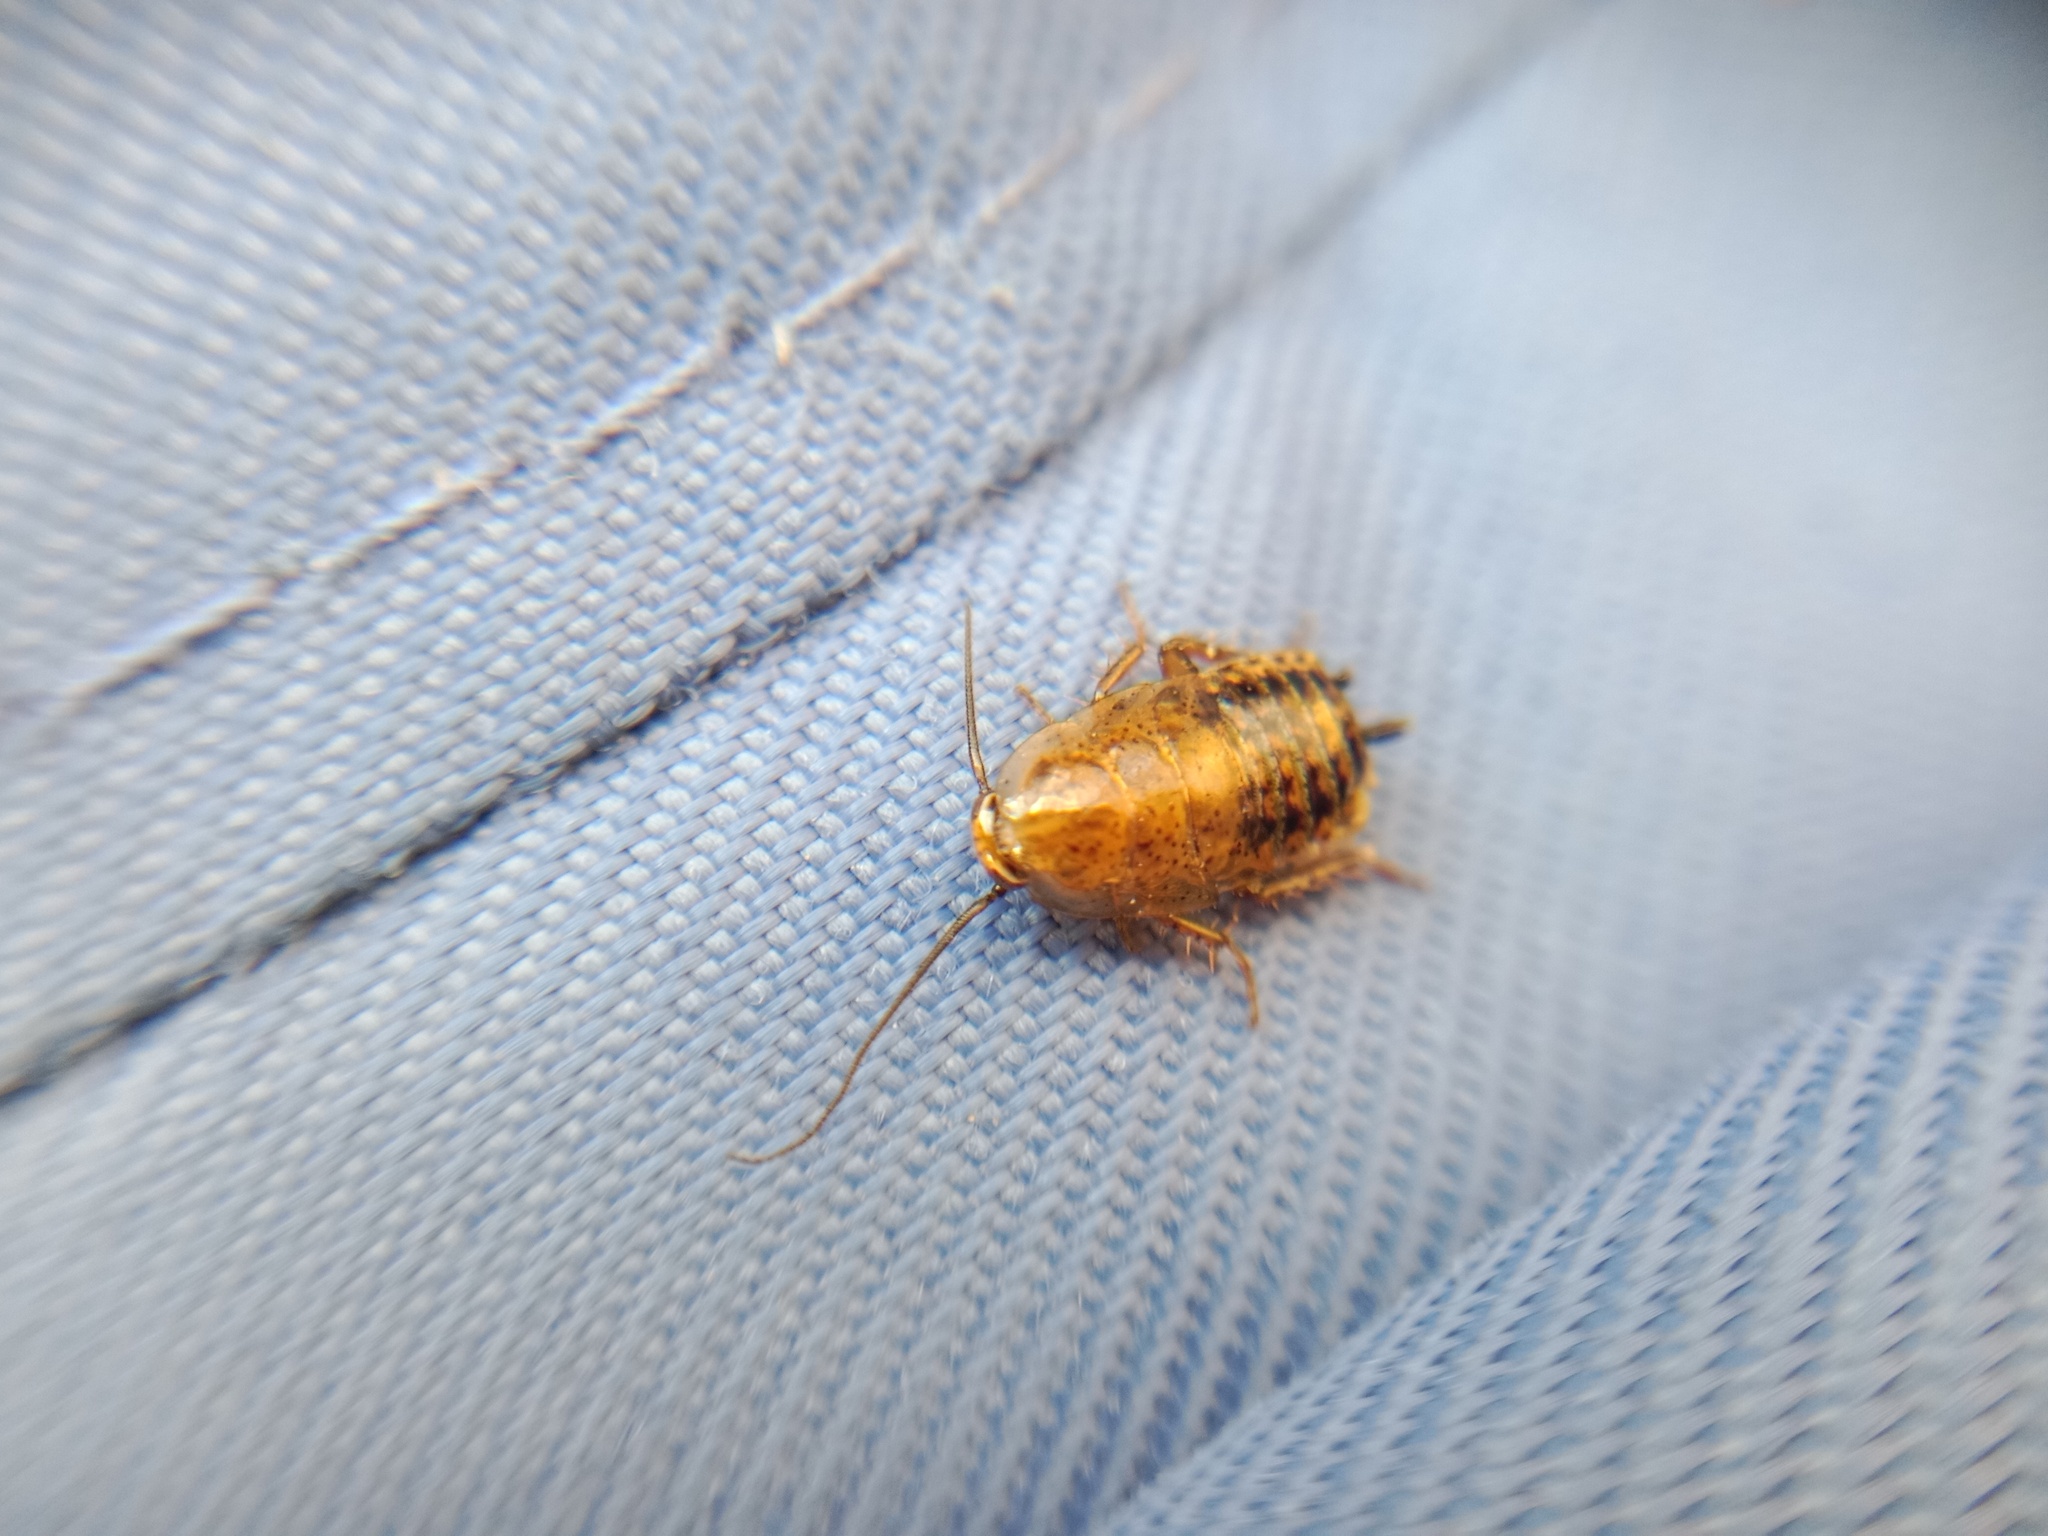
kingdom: Animalia
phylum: Arthropoda
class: Insecta
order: Blattodea
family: Ectobiidae
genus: Ectobius
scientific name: Ectobius lapponicus
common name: Dusky cockroach
